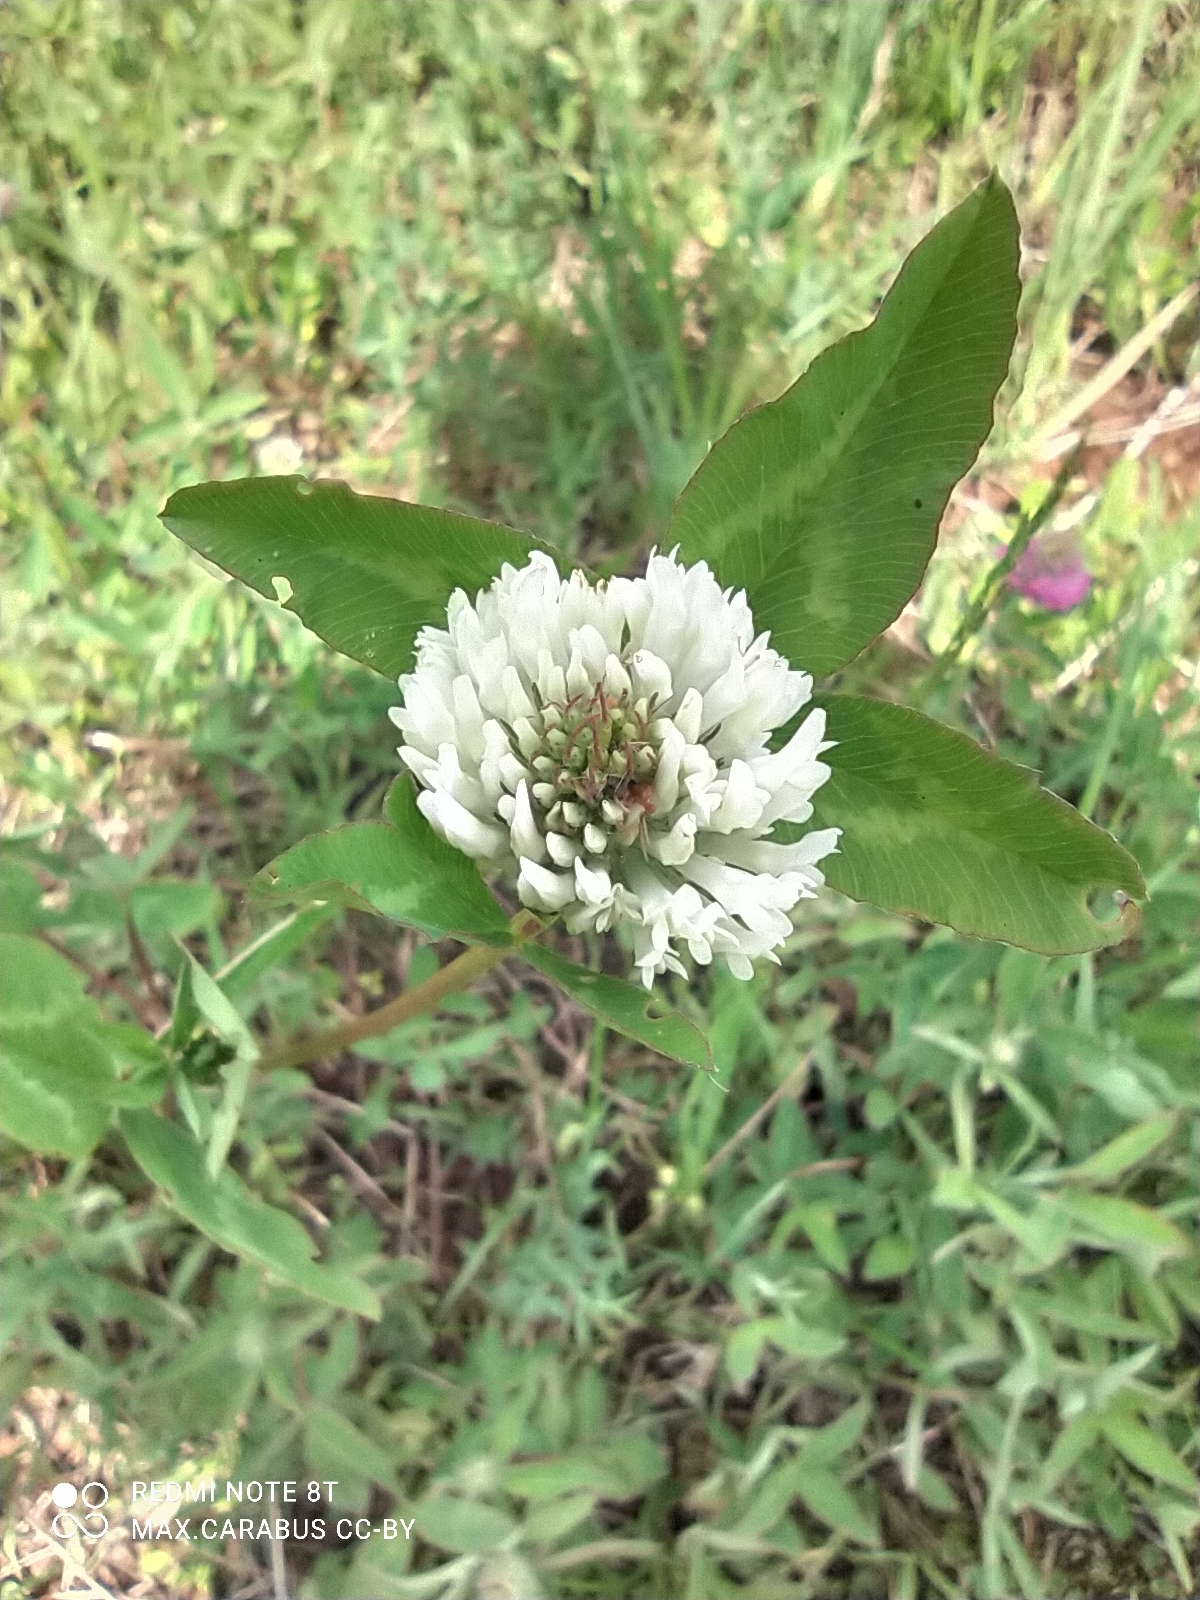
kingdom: Plantae
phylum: Tracheophyta
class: Magnoliopsida
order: Fabales
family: Fabaceae
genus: Trifolium
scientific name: Trifolium pratense
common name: Red clover
